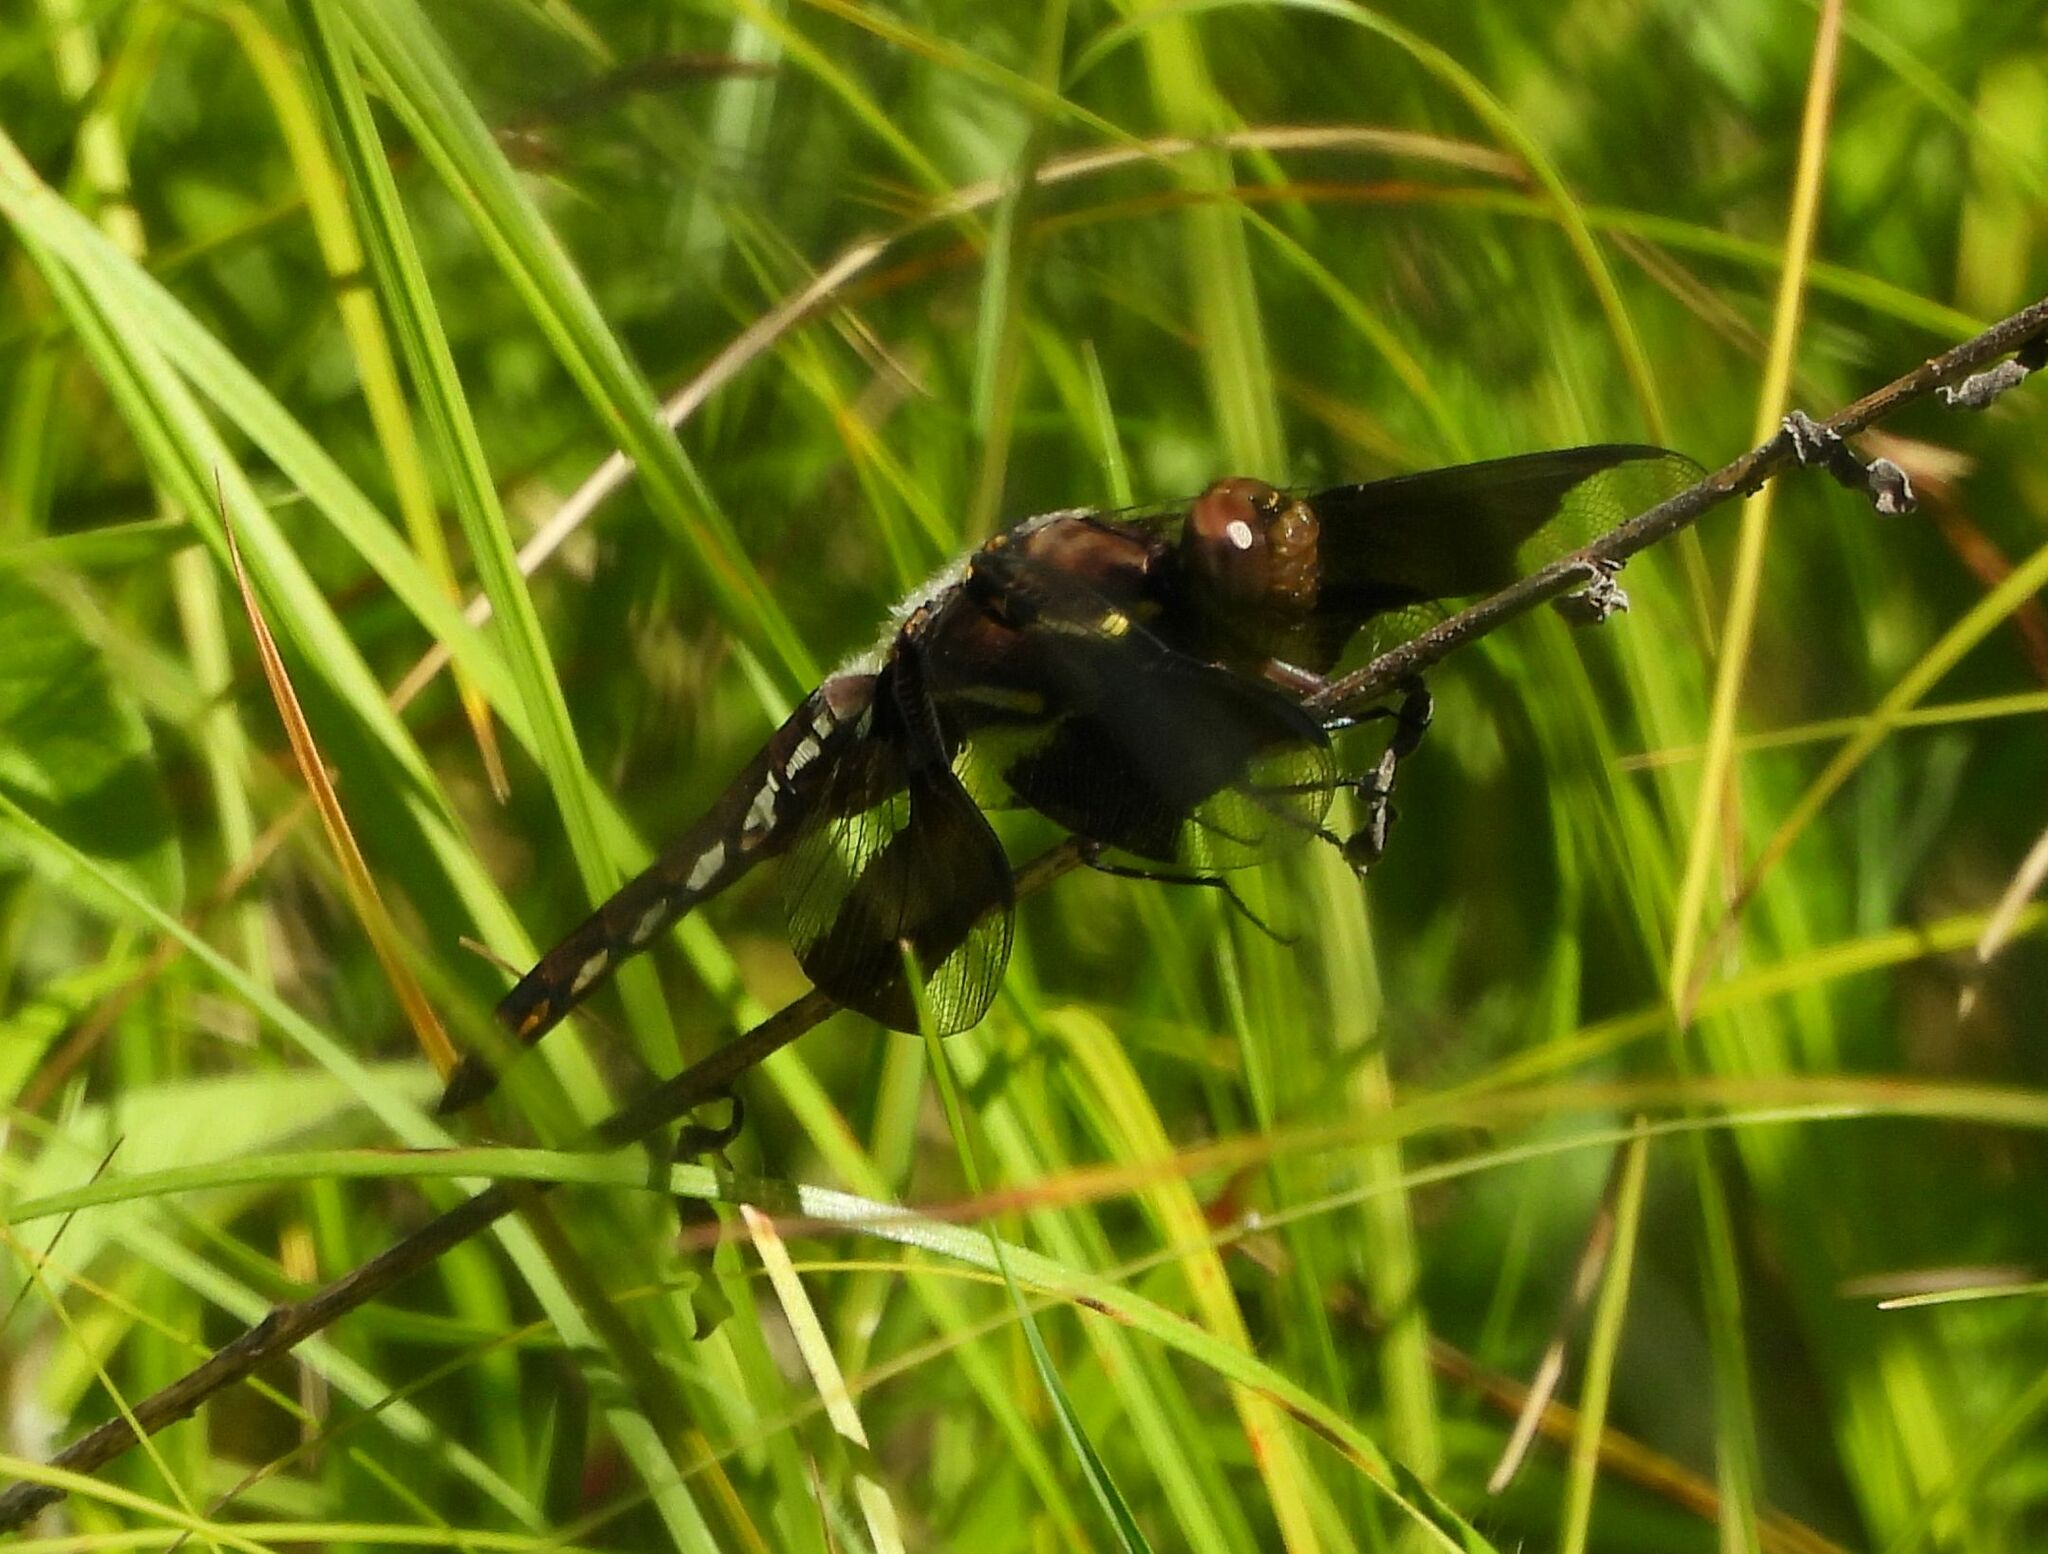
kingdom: Animalia
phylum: Arthropoda
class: Insecta
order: Odonata
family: Libellulidae
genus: Plathemis
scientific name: Plathemis lydia
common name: Common whitetail
